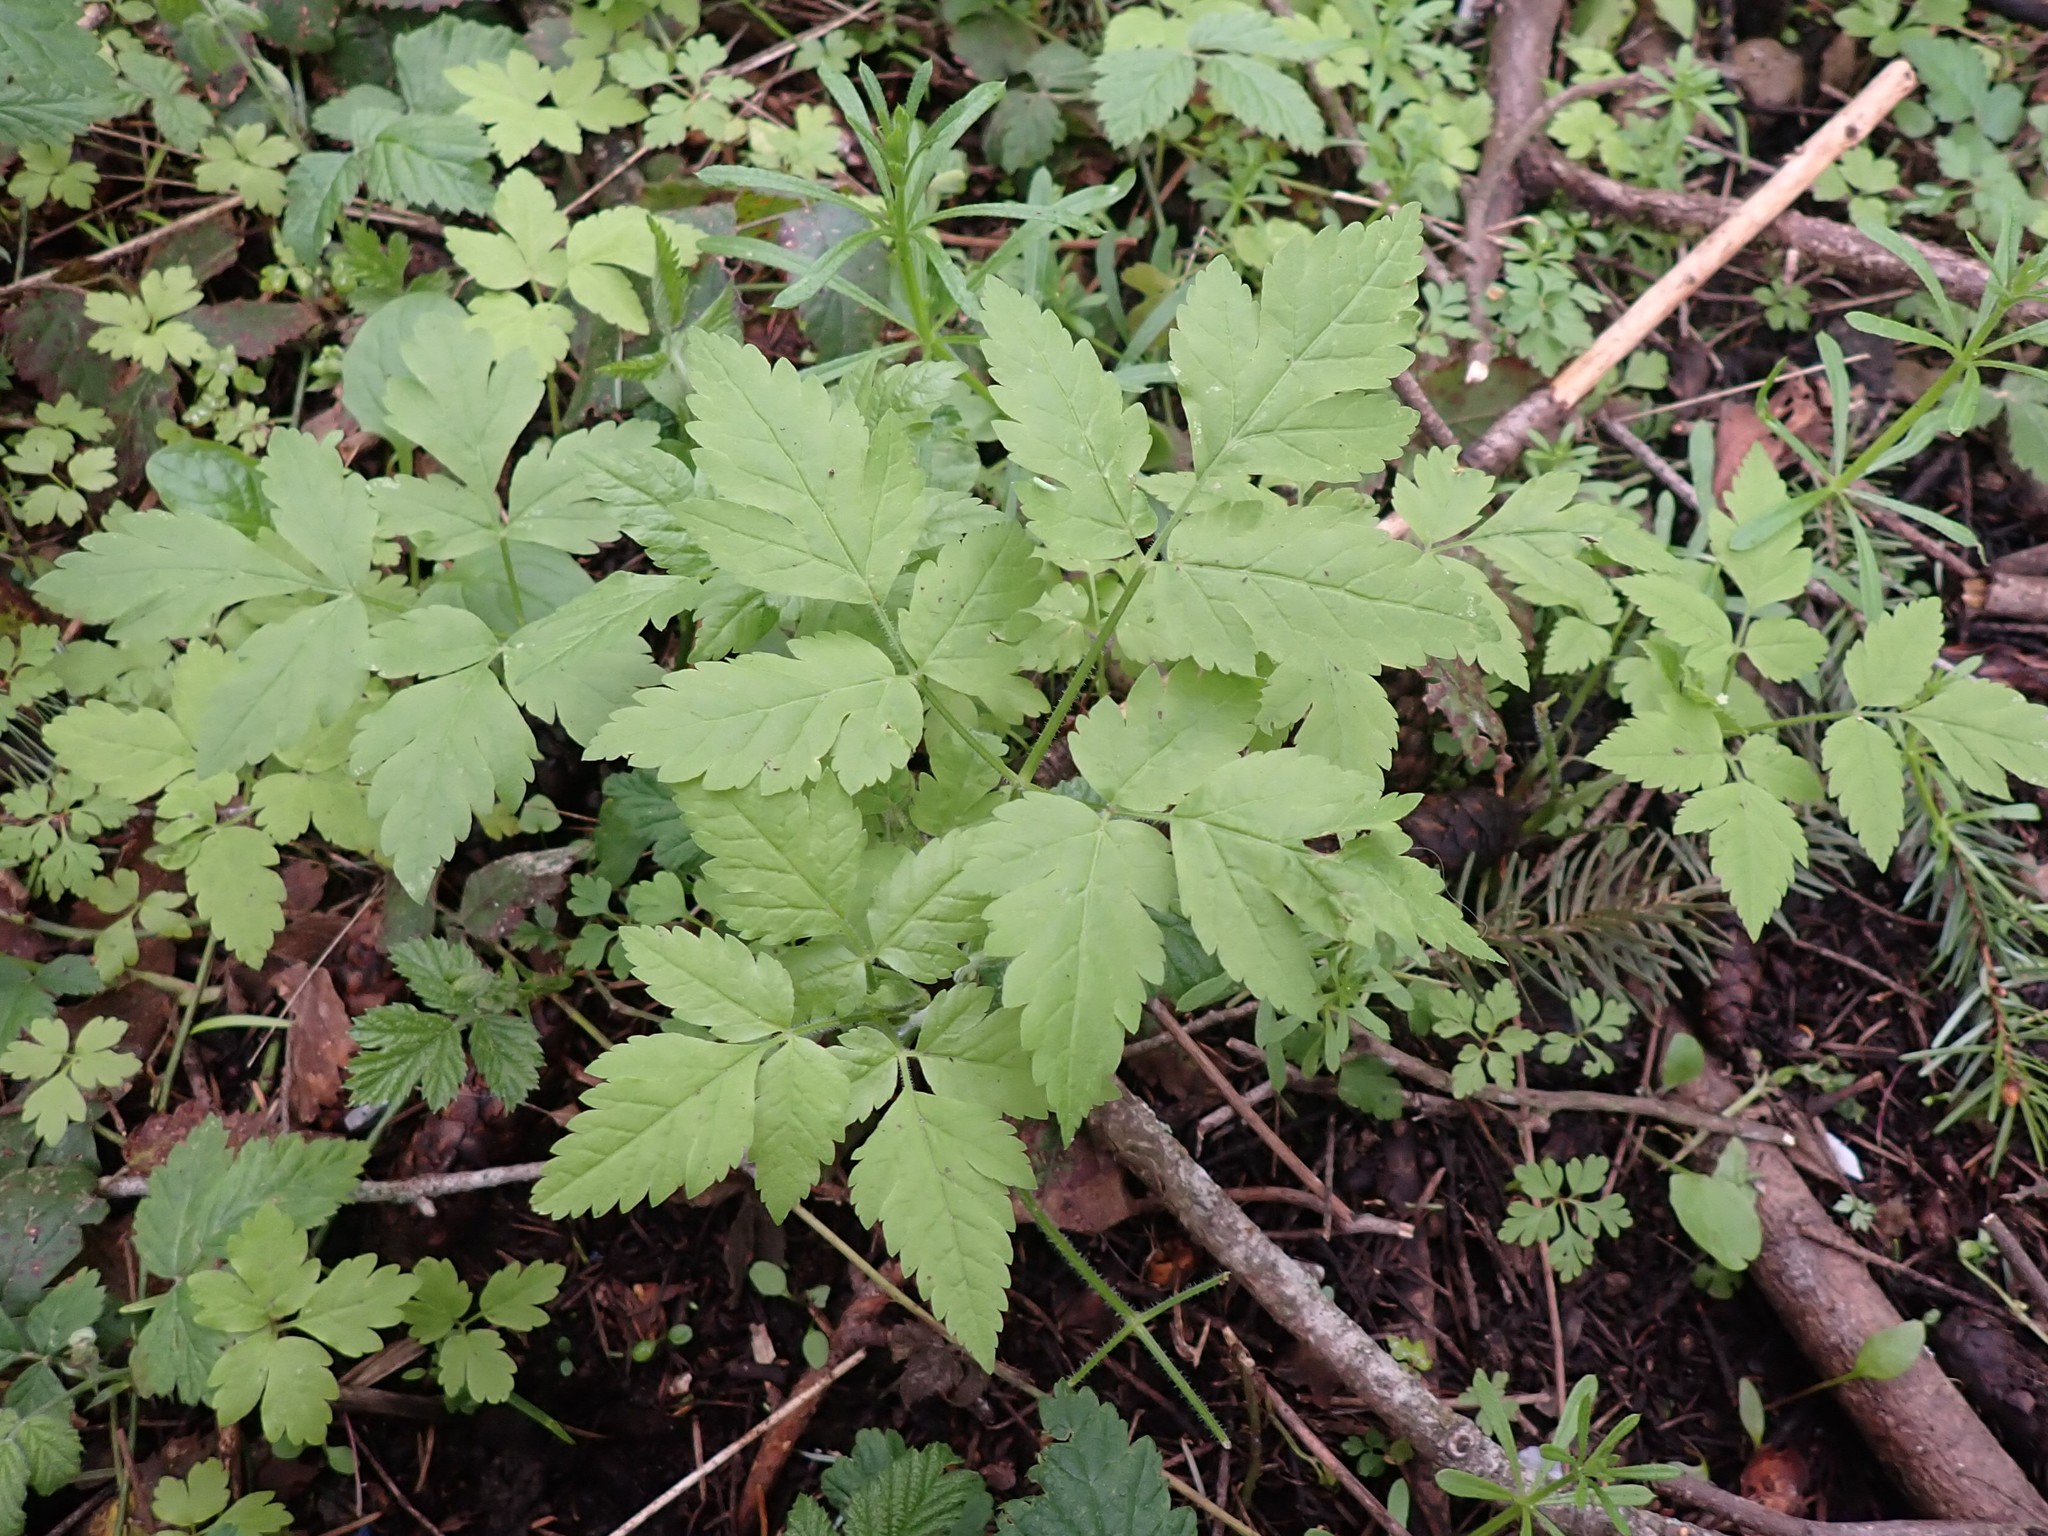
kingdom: Plantae
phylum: Tracheophyta
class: Magnoliopsida
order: Apiales
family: Apiaceae
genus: Osmorhiza
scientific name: Osmorhiza berteroi
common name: Mountain sweet cicely
